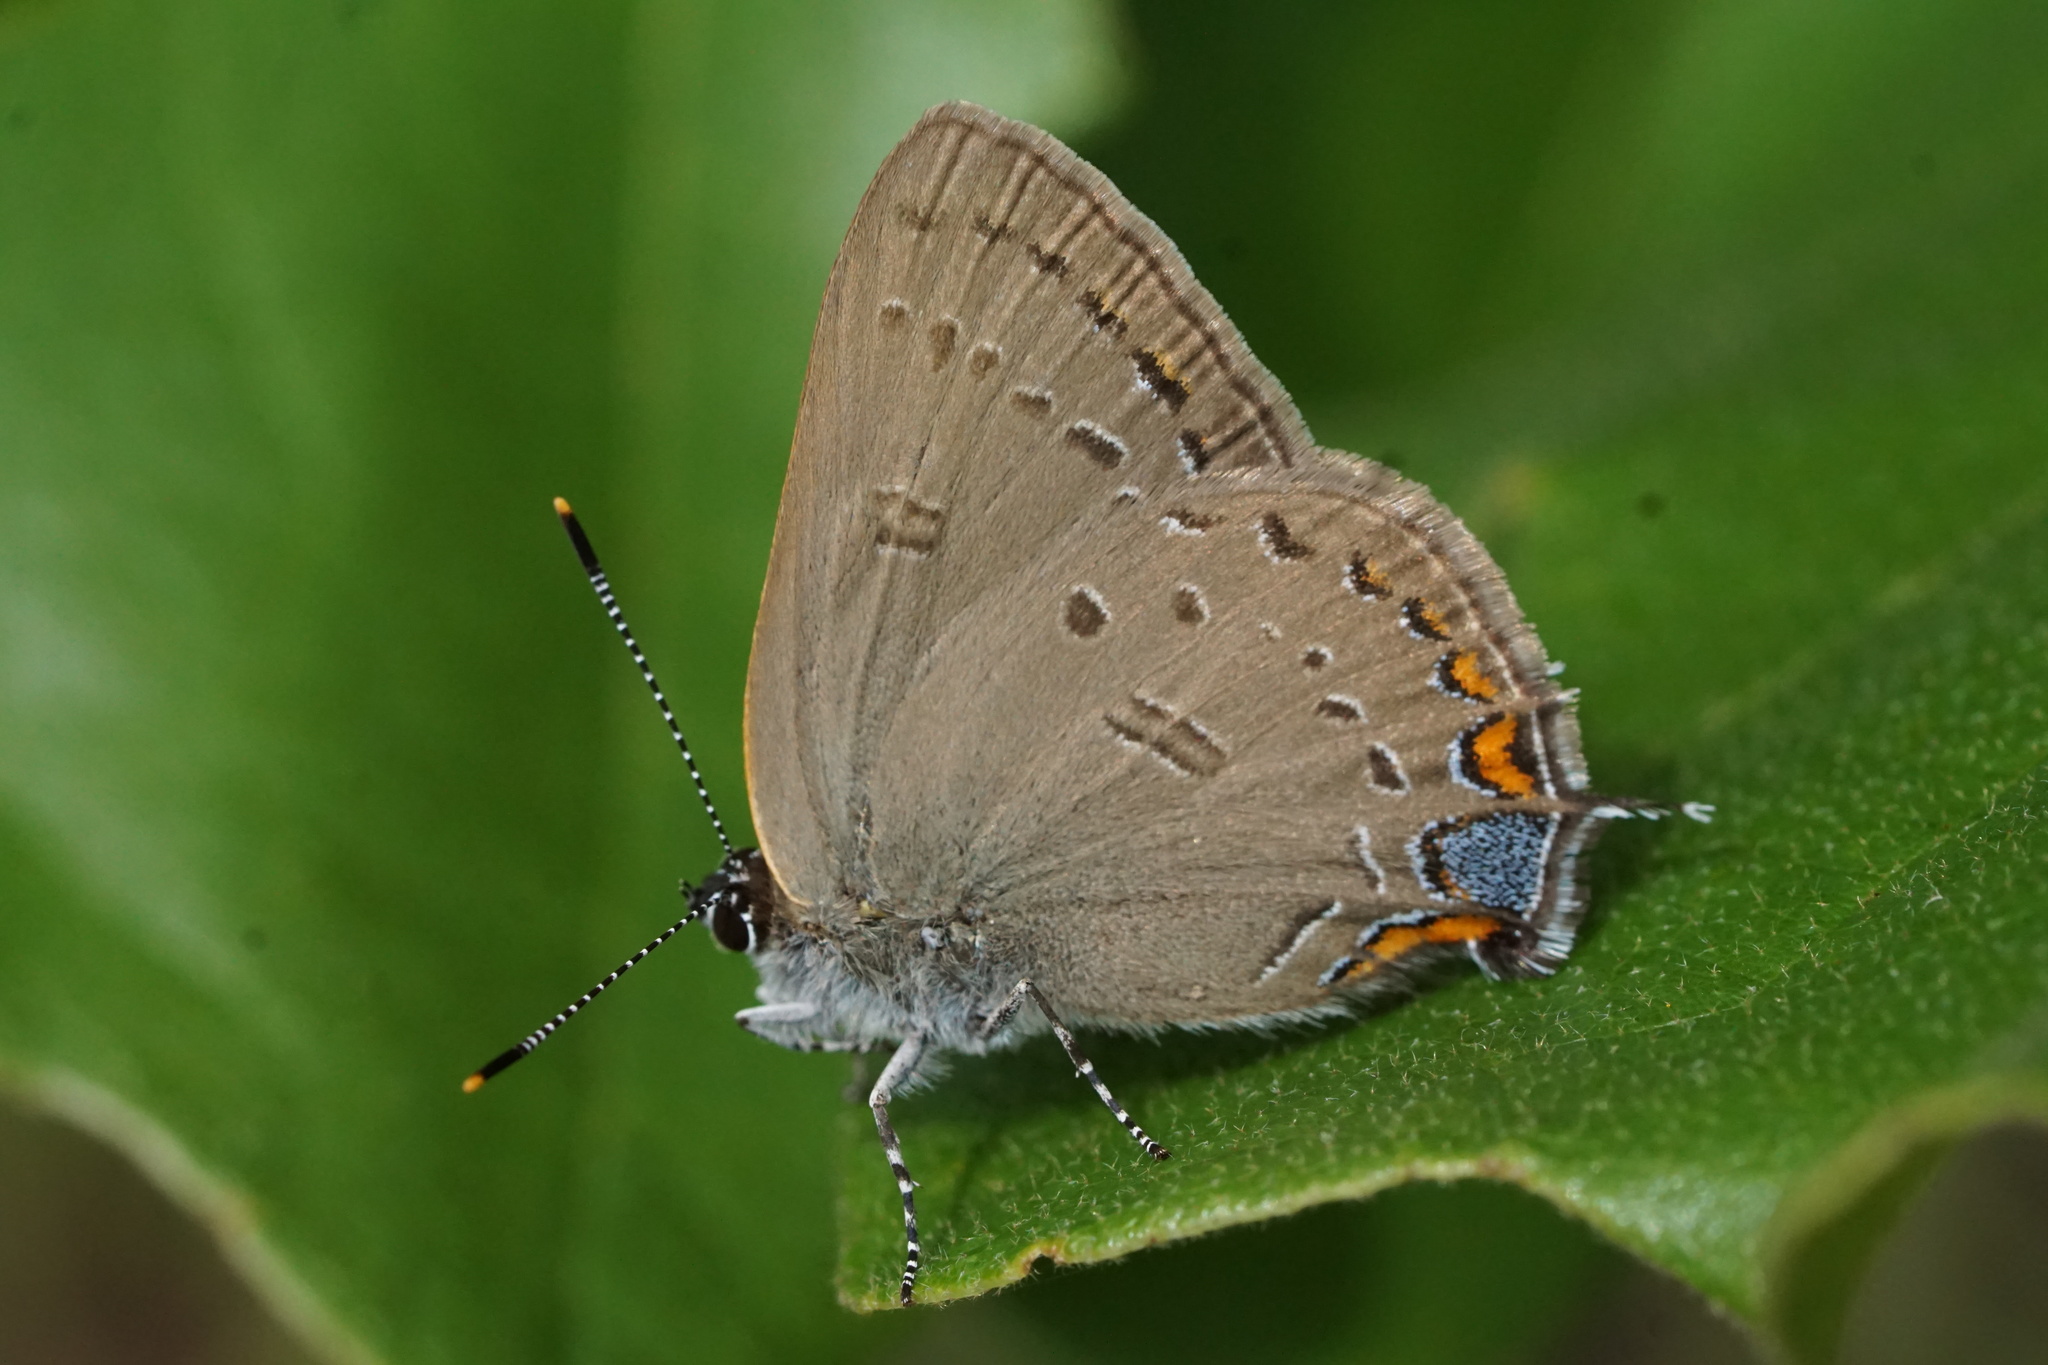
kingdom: Animalia
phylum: Arthropoda
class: Insecta
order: Lepidoptera
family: Lycaenidae
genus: Satyrium
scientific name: Satyrium edwardsii
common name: Edwards' hairstreak
